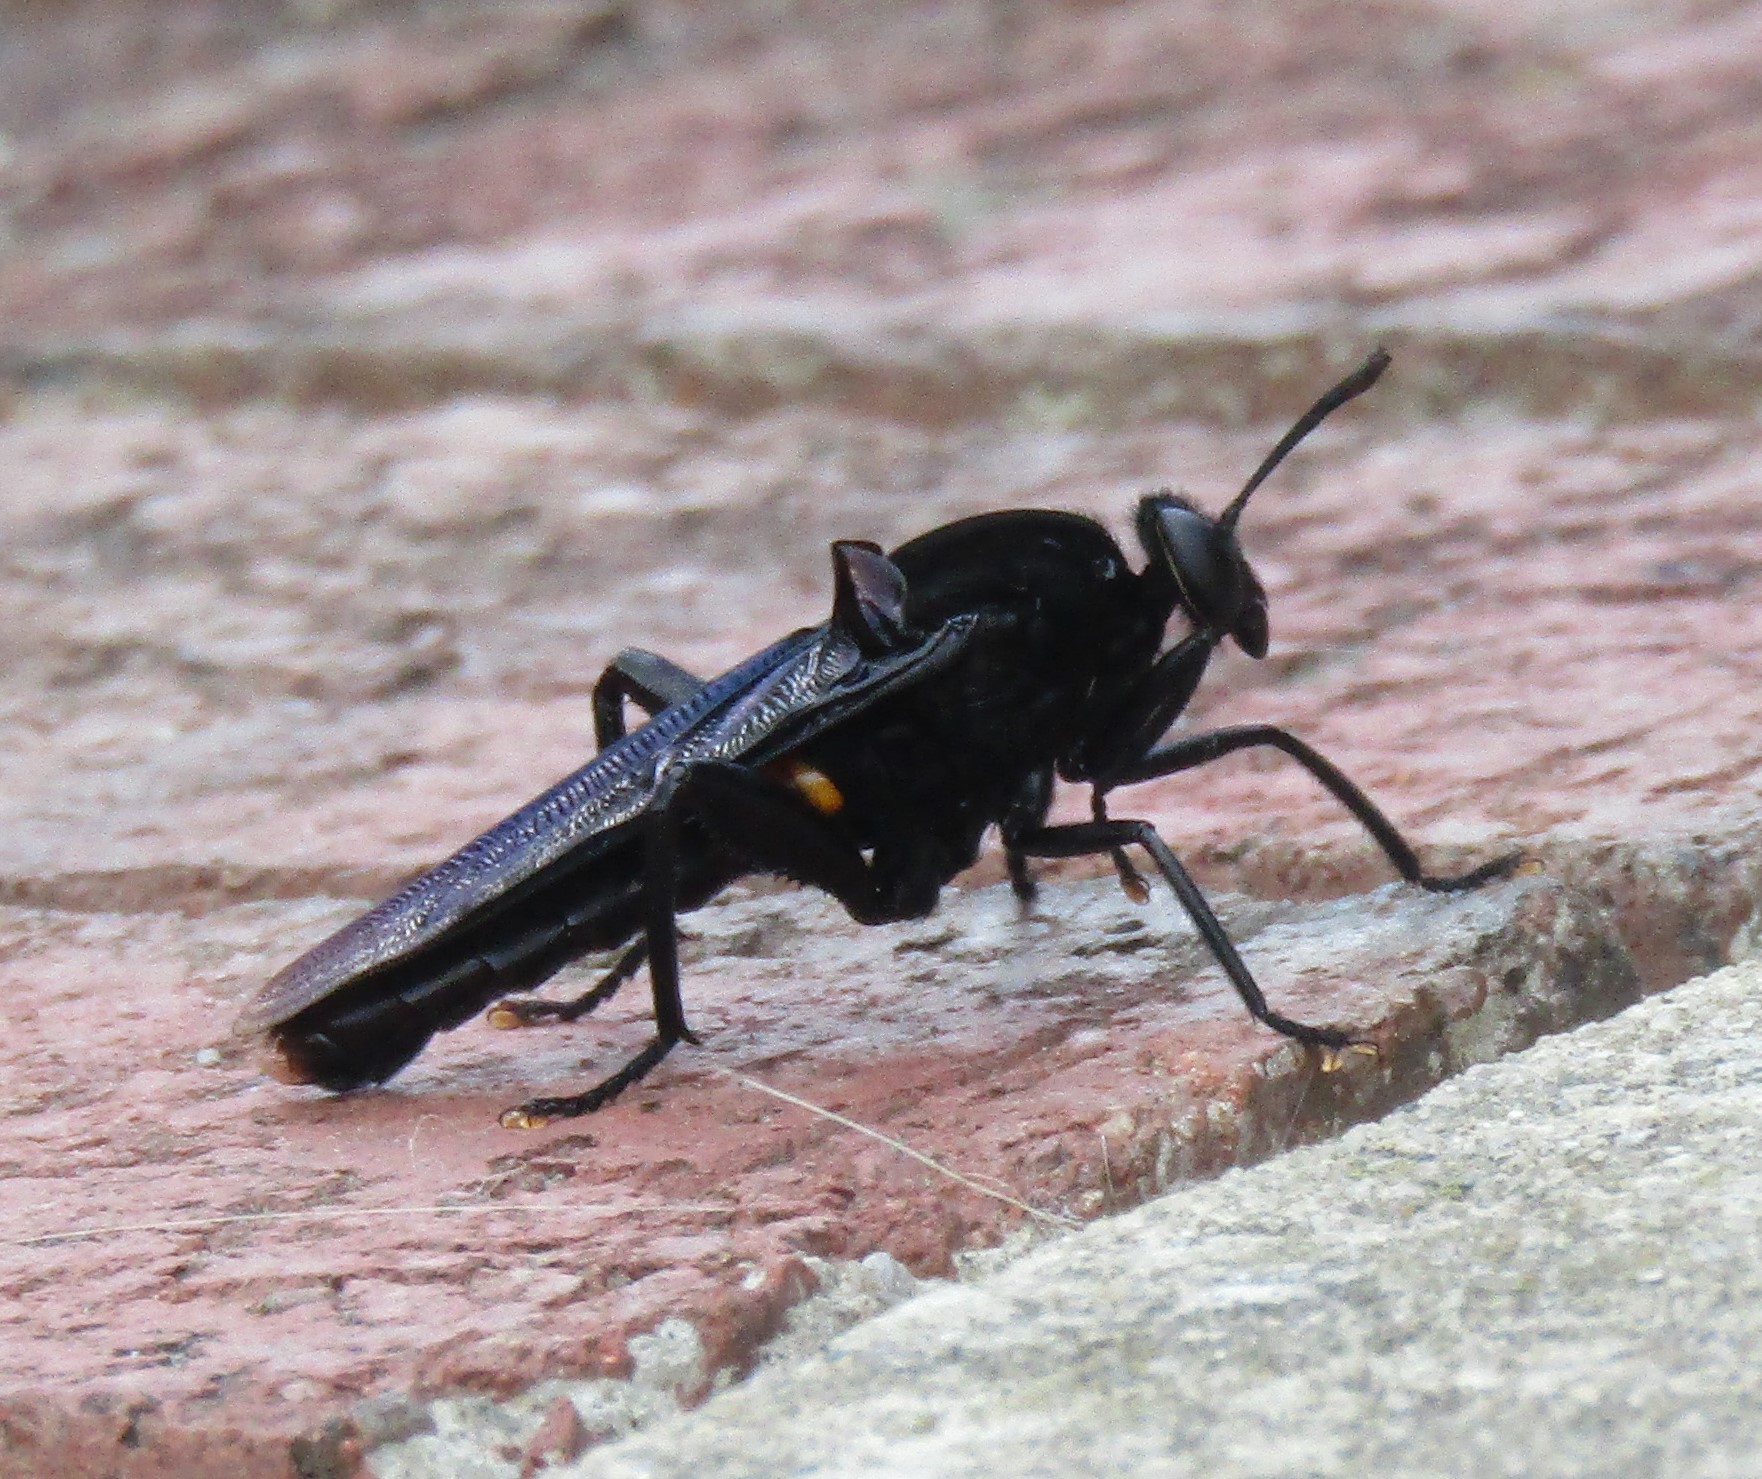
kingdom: Animalia
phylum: Arthropoda
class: Insecta
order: Diptera
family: Mydidae
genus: Mydas
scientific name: Mydas clavatus
